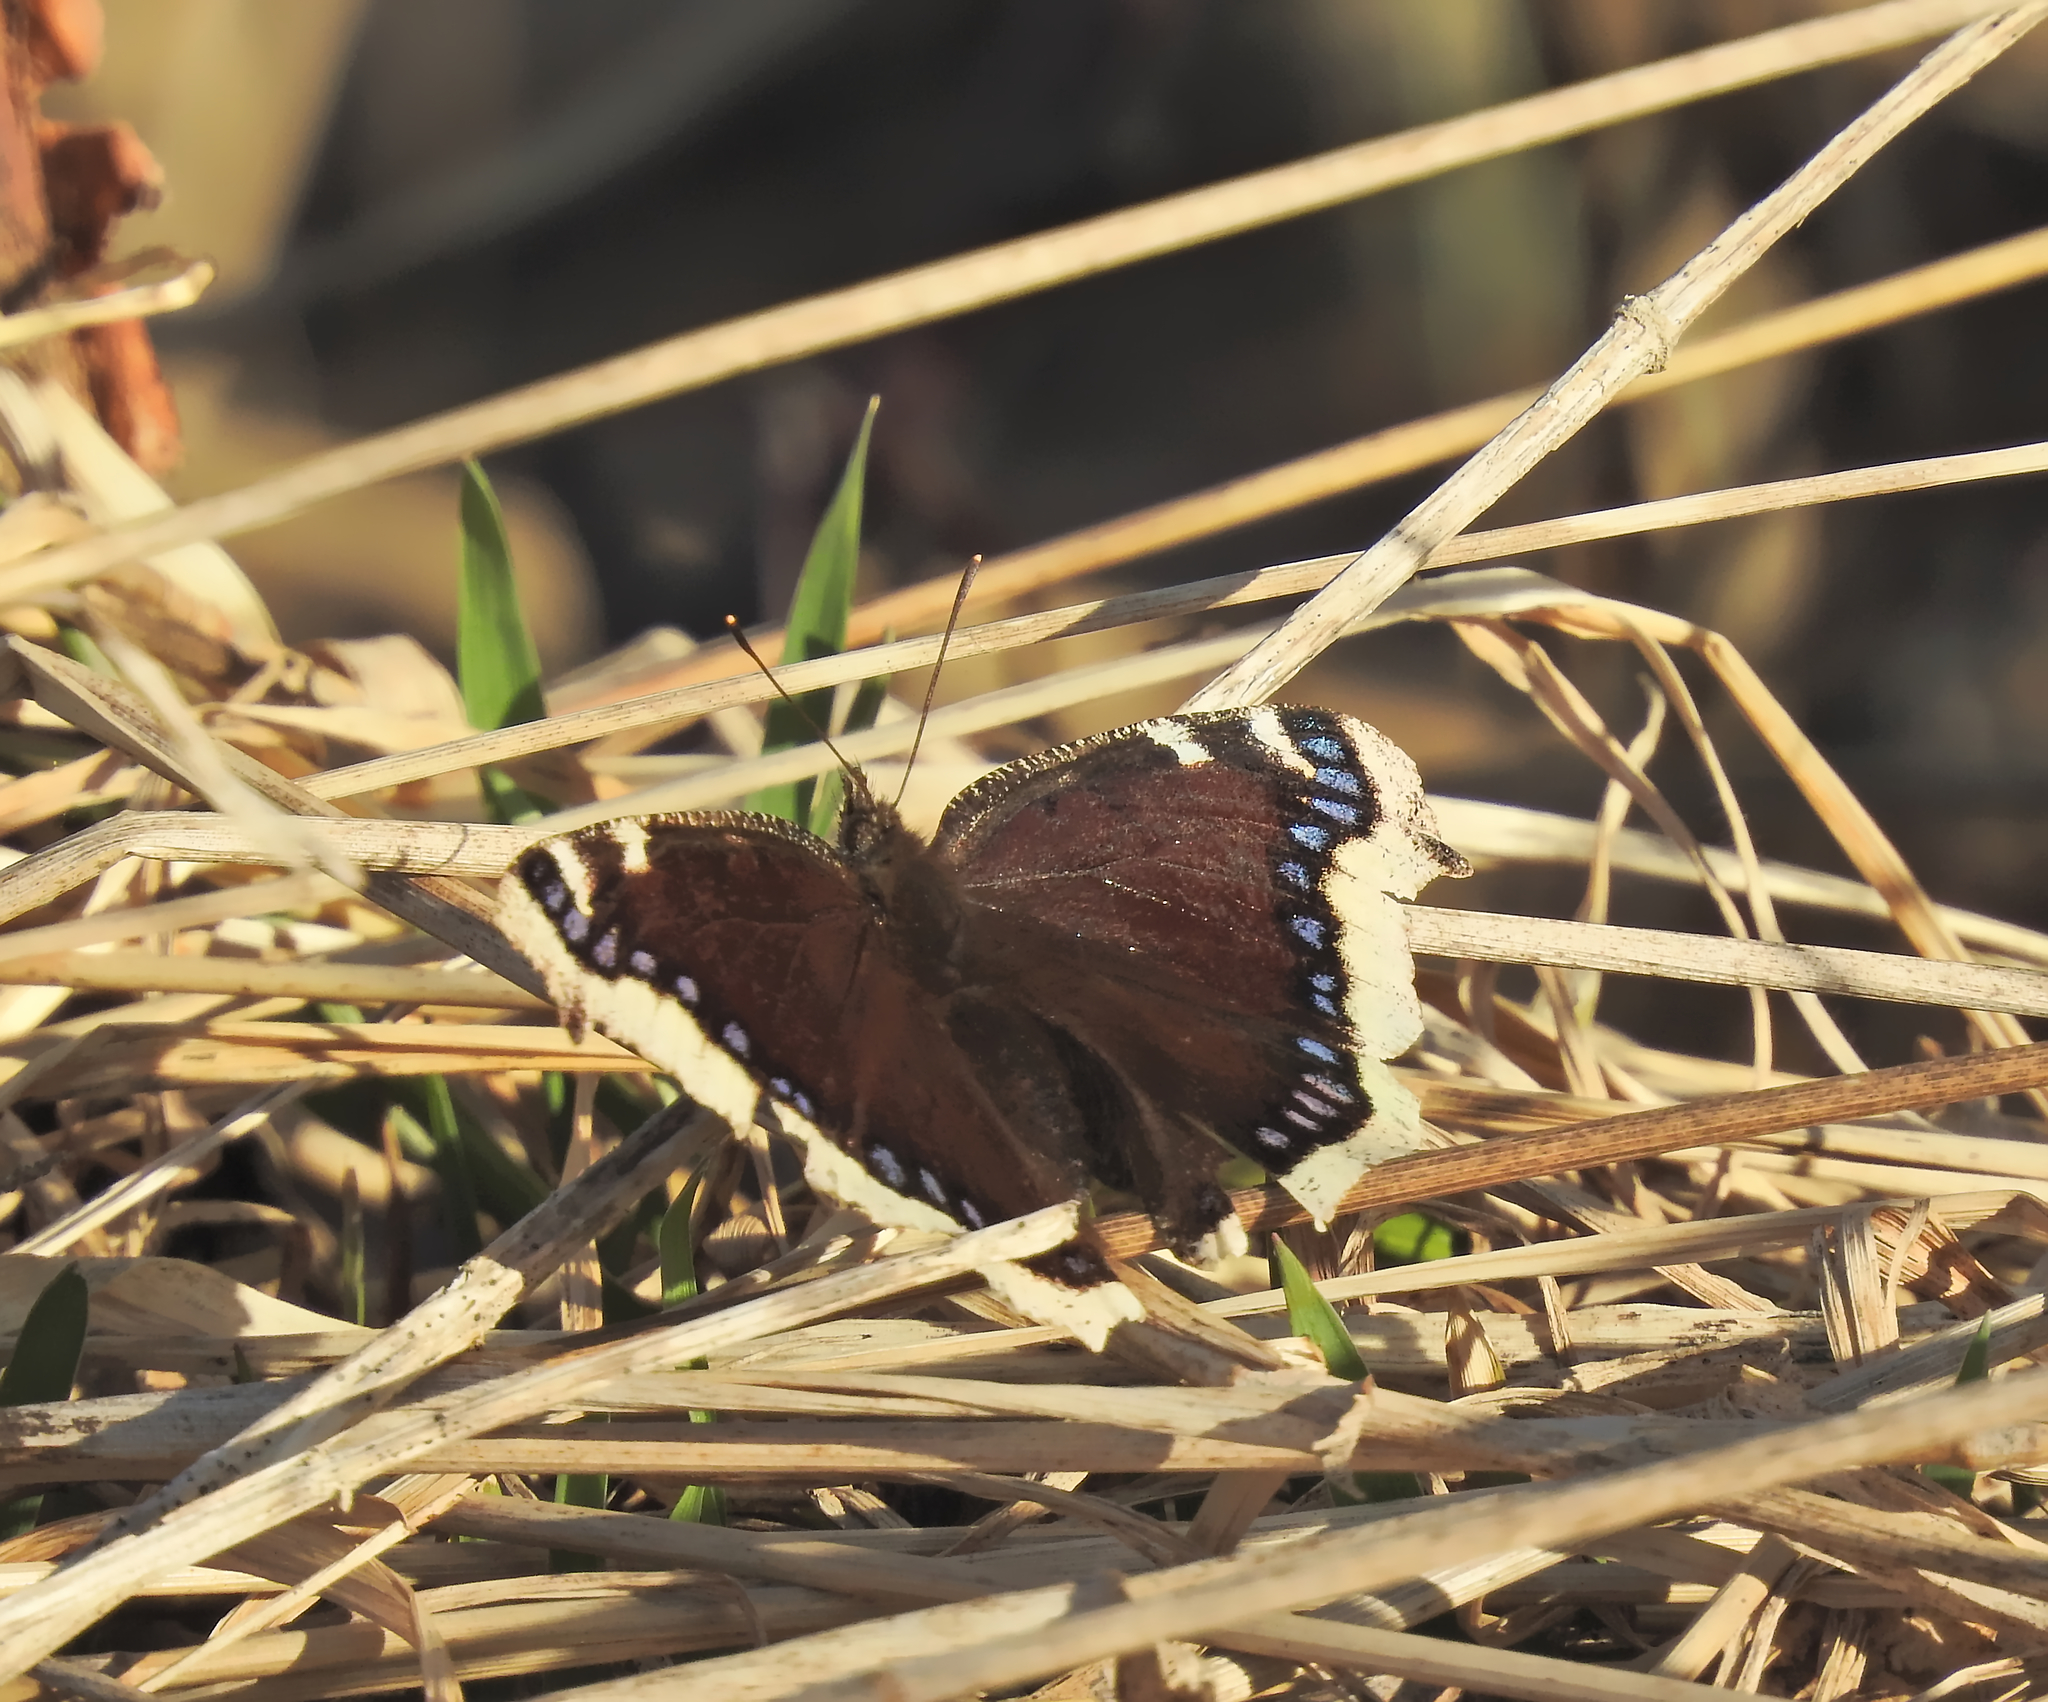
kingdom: Animalia
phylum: Arthropoda
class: Insecta
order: Lepidoptera
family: Nymphalidae
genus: Nymphalis
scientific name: Nymphalis antiopa
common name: Camberwell beauty
